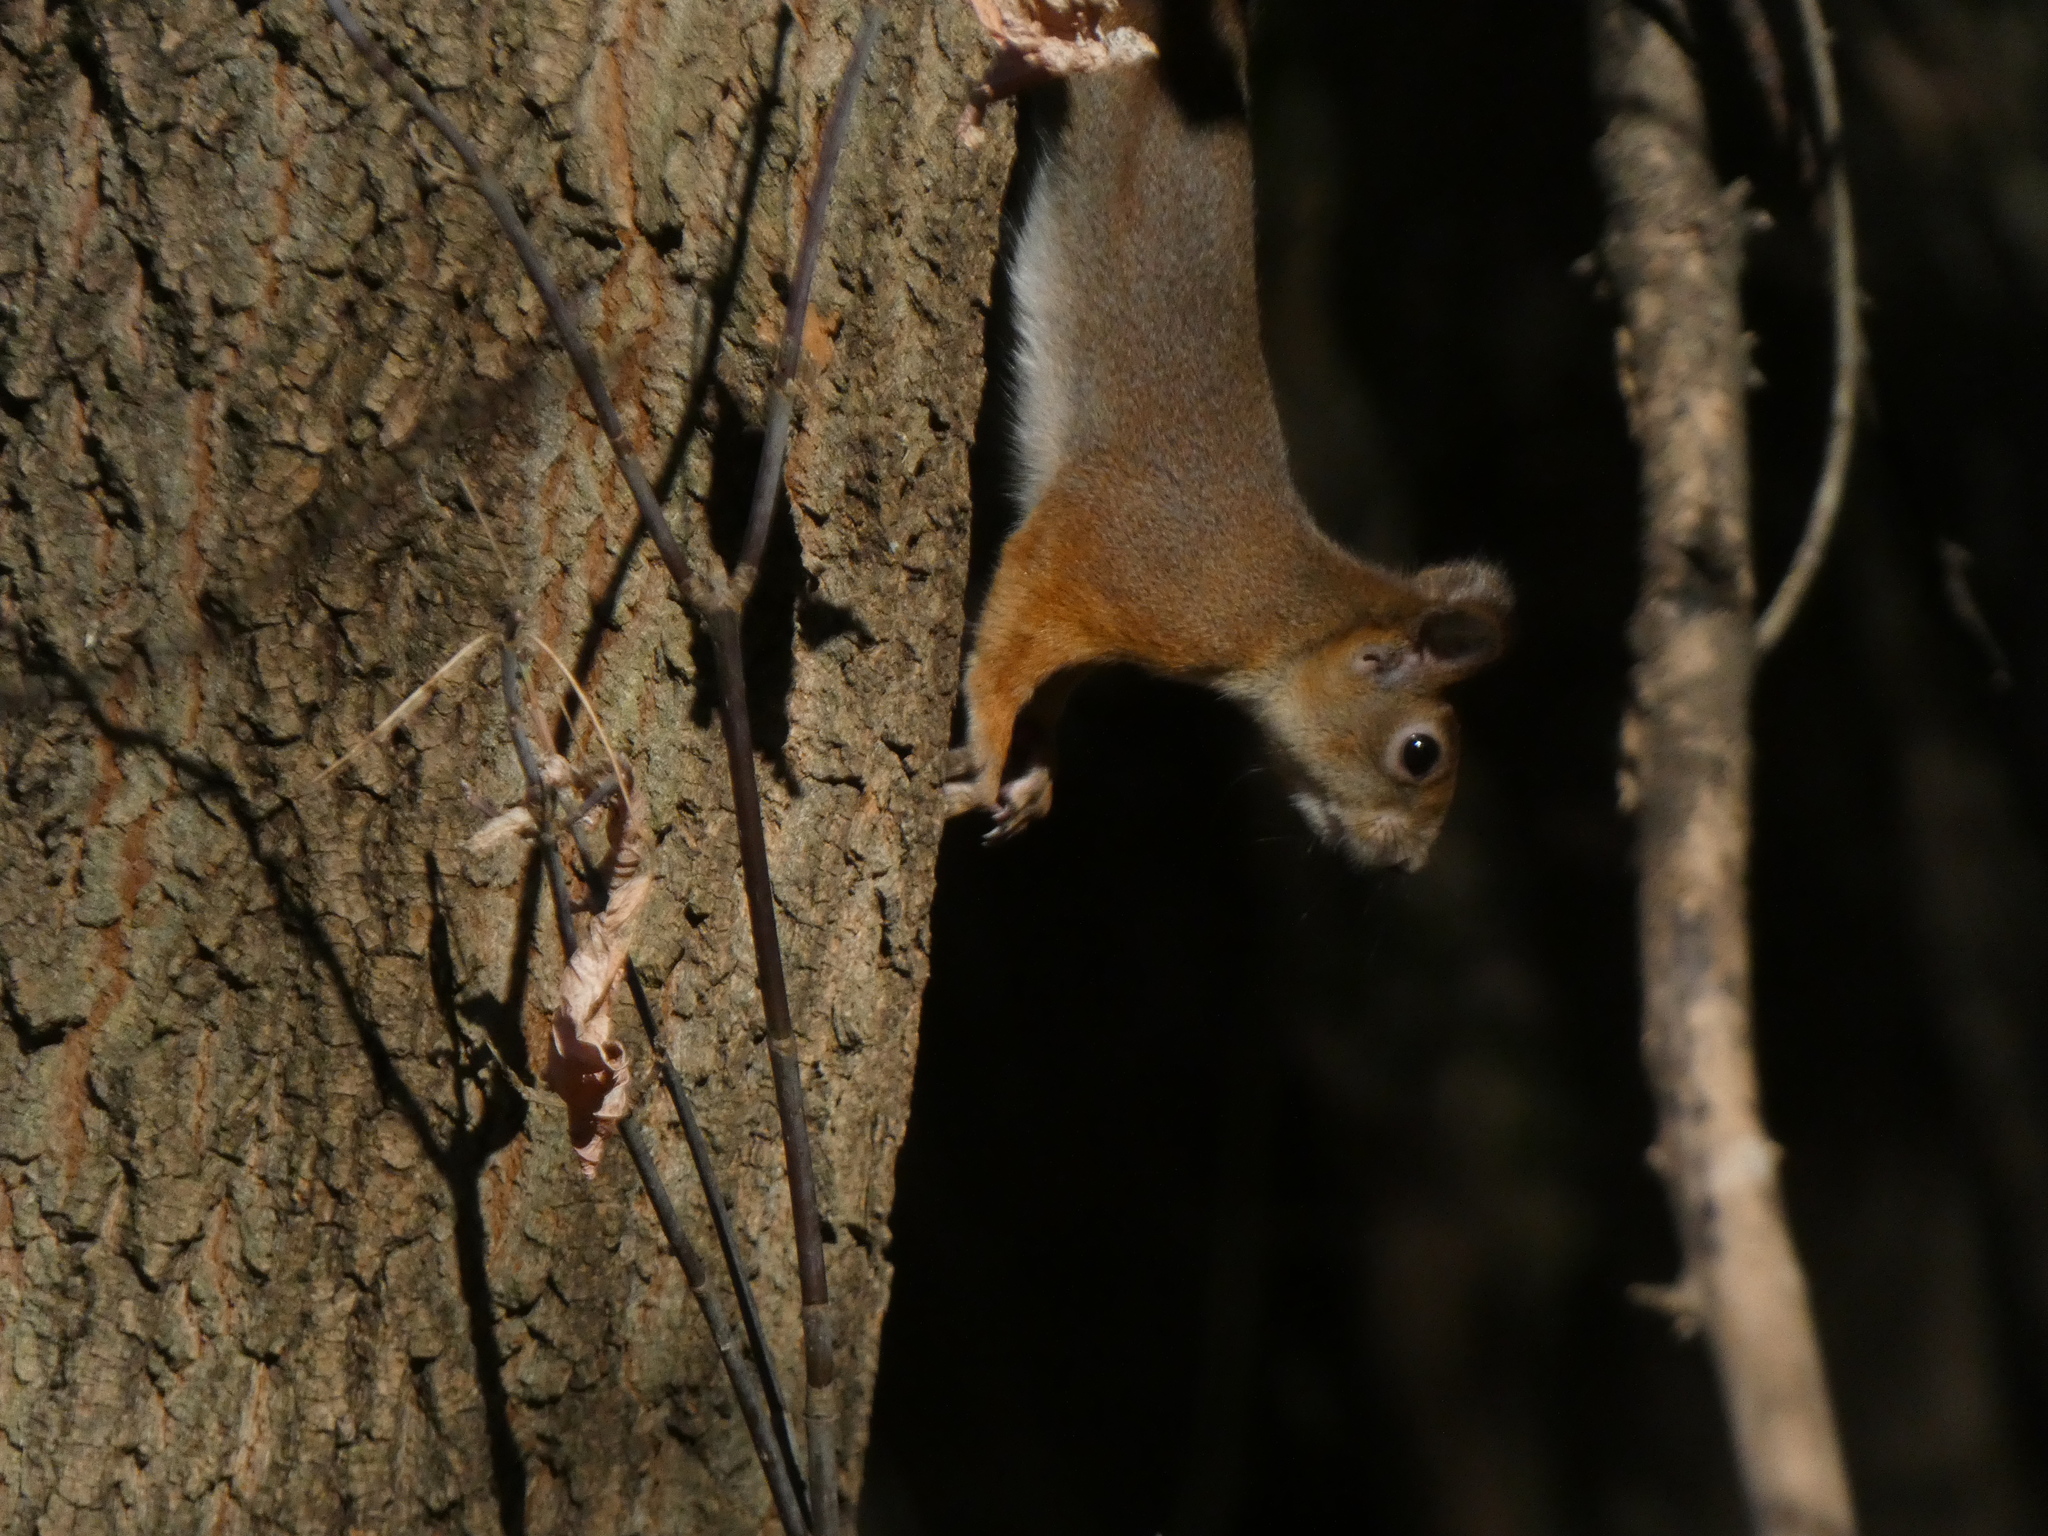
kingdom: Animalia
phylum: Chordata
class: Mammalia
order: Rodentia
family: Sciuridae
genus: Sciurus
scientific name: Sciurus vulgaris
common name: Eurasian red squirrel
